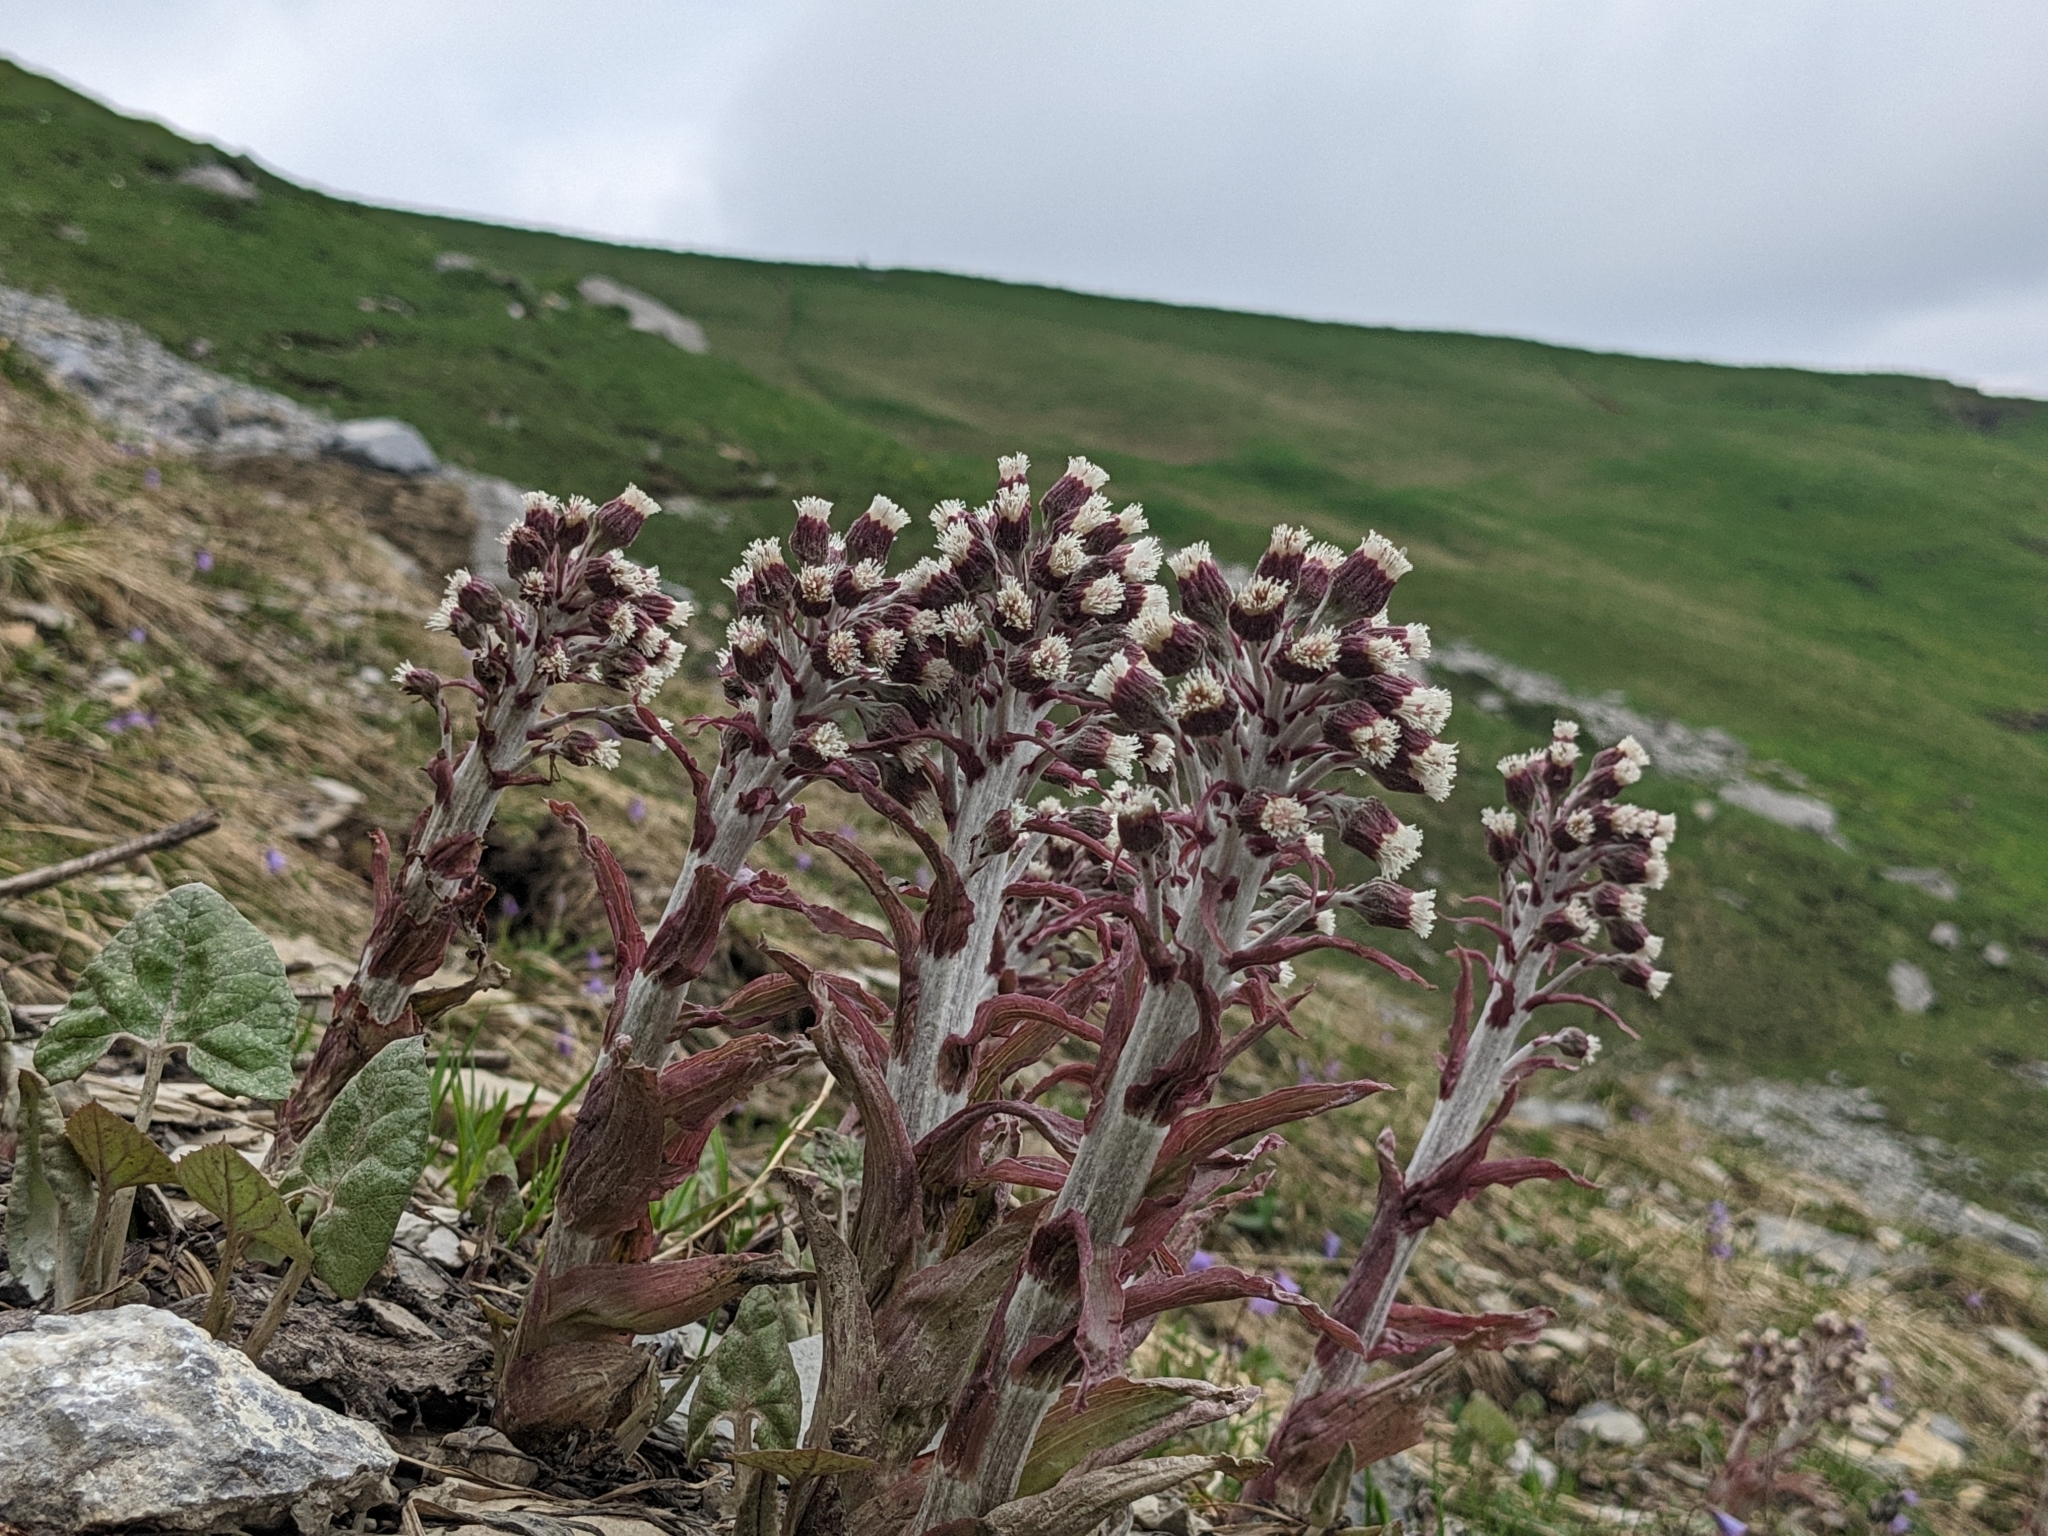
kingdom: Plantae
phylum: Tracheophyta
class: Magnoliopsida
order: Asterales
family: Asteraceae
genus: Petasites
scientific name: Petasites paradoxus
